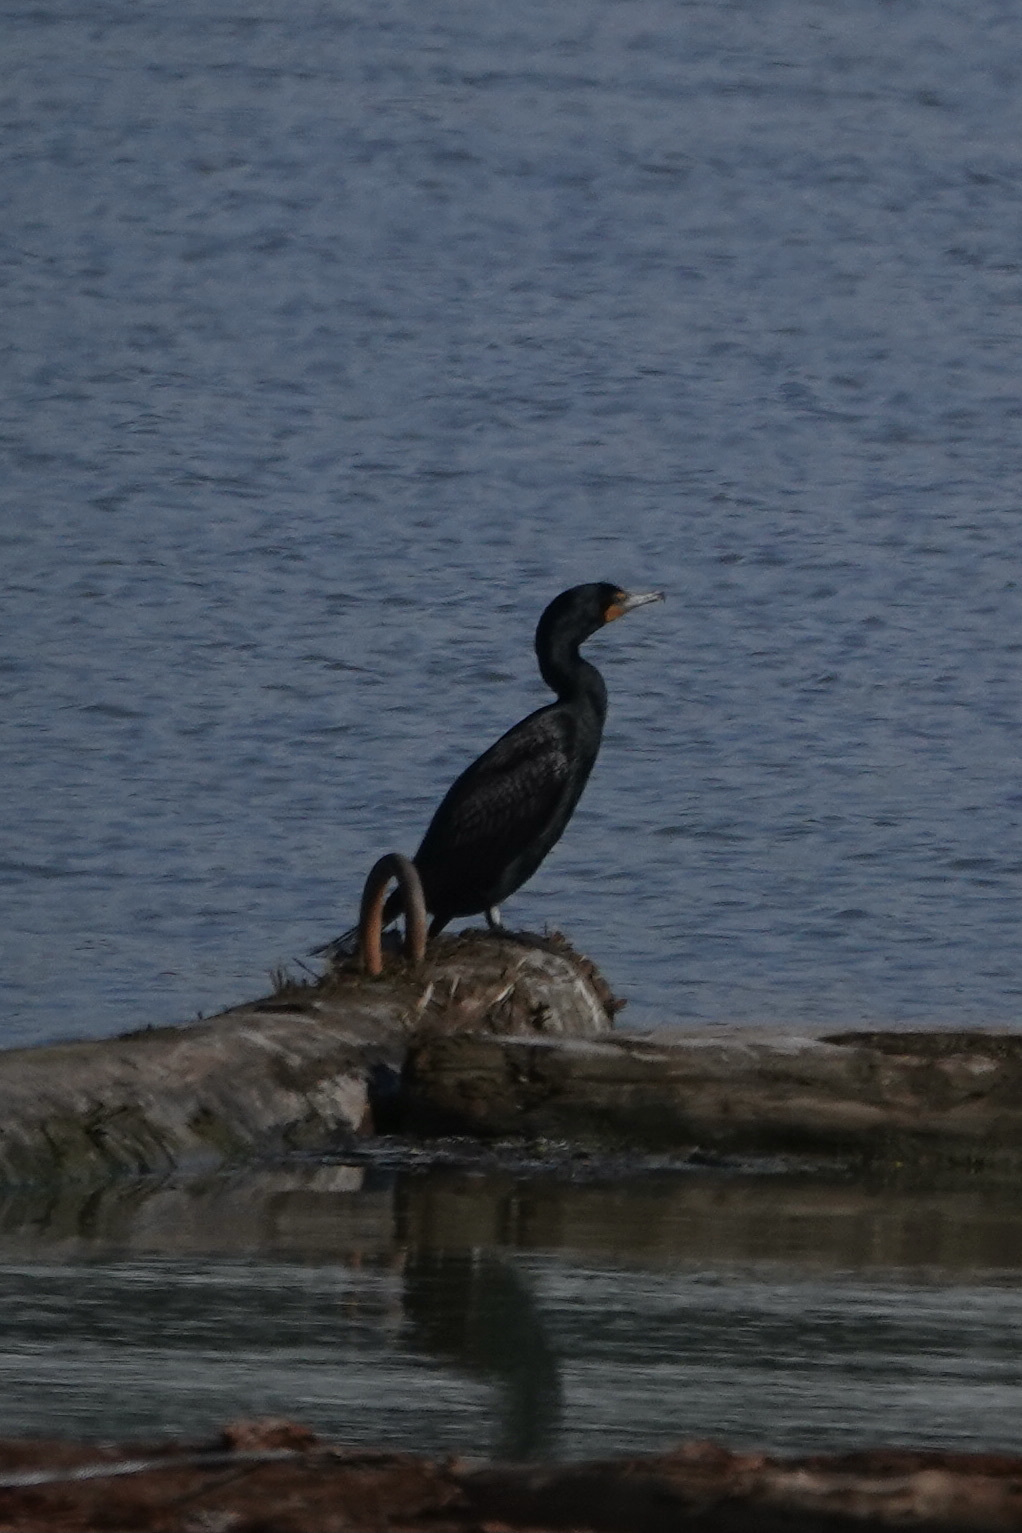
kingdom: Animalia
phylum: Chordata
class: Aves
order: Suliformes
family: Phalacrocoracidae
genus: Phalacrocorax
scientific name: Phalacrocorax auritus
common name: Double-crested cormorant
